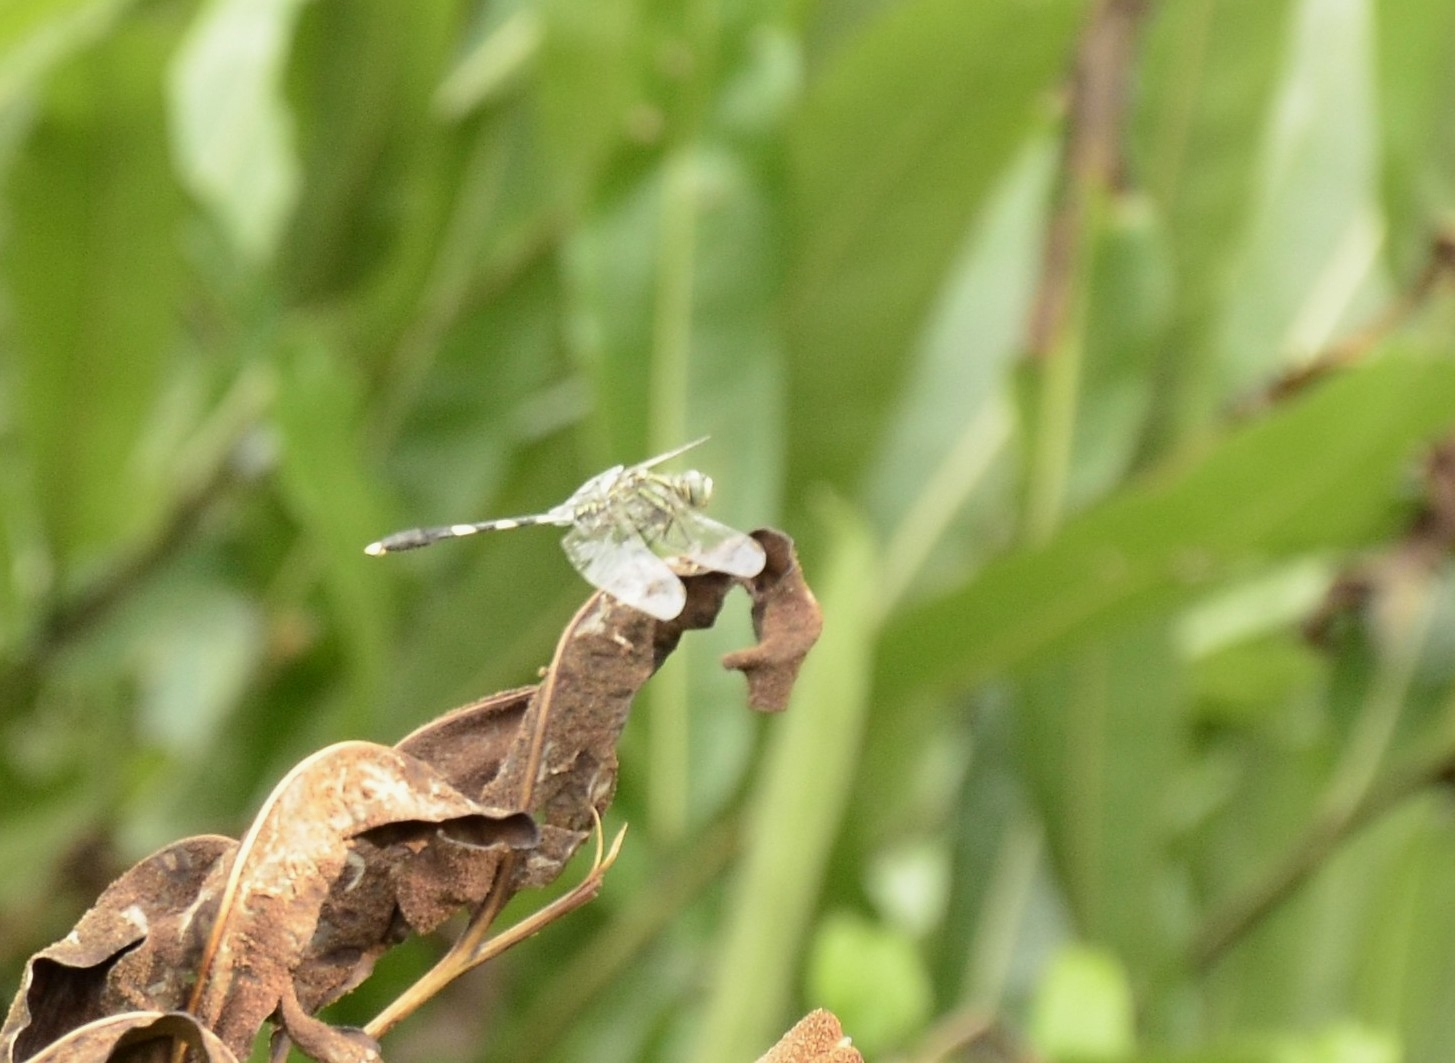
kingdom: Animalia
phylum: Arthropoda
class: Insecta
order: Odonata
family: Libellulidae
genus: Orthetrum
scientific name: Orthetrum sabina
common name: Slender skimmer
